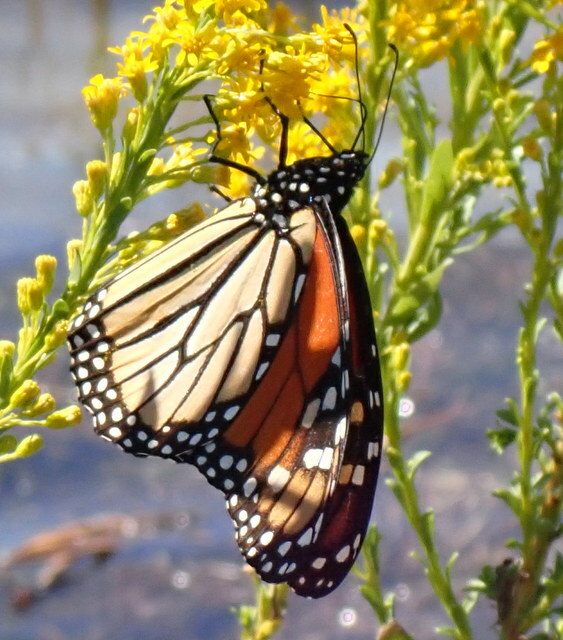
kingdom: Animalia
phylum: Arthropoda
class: Insecta
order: Lepidoptera
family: Nymphalidae
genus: Danaus
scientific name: Danaus plexippus
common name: Monarch
